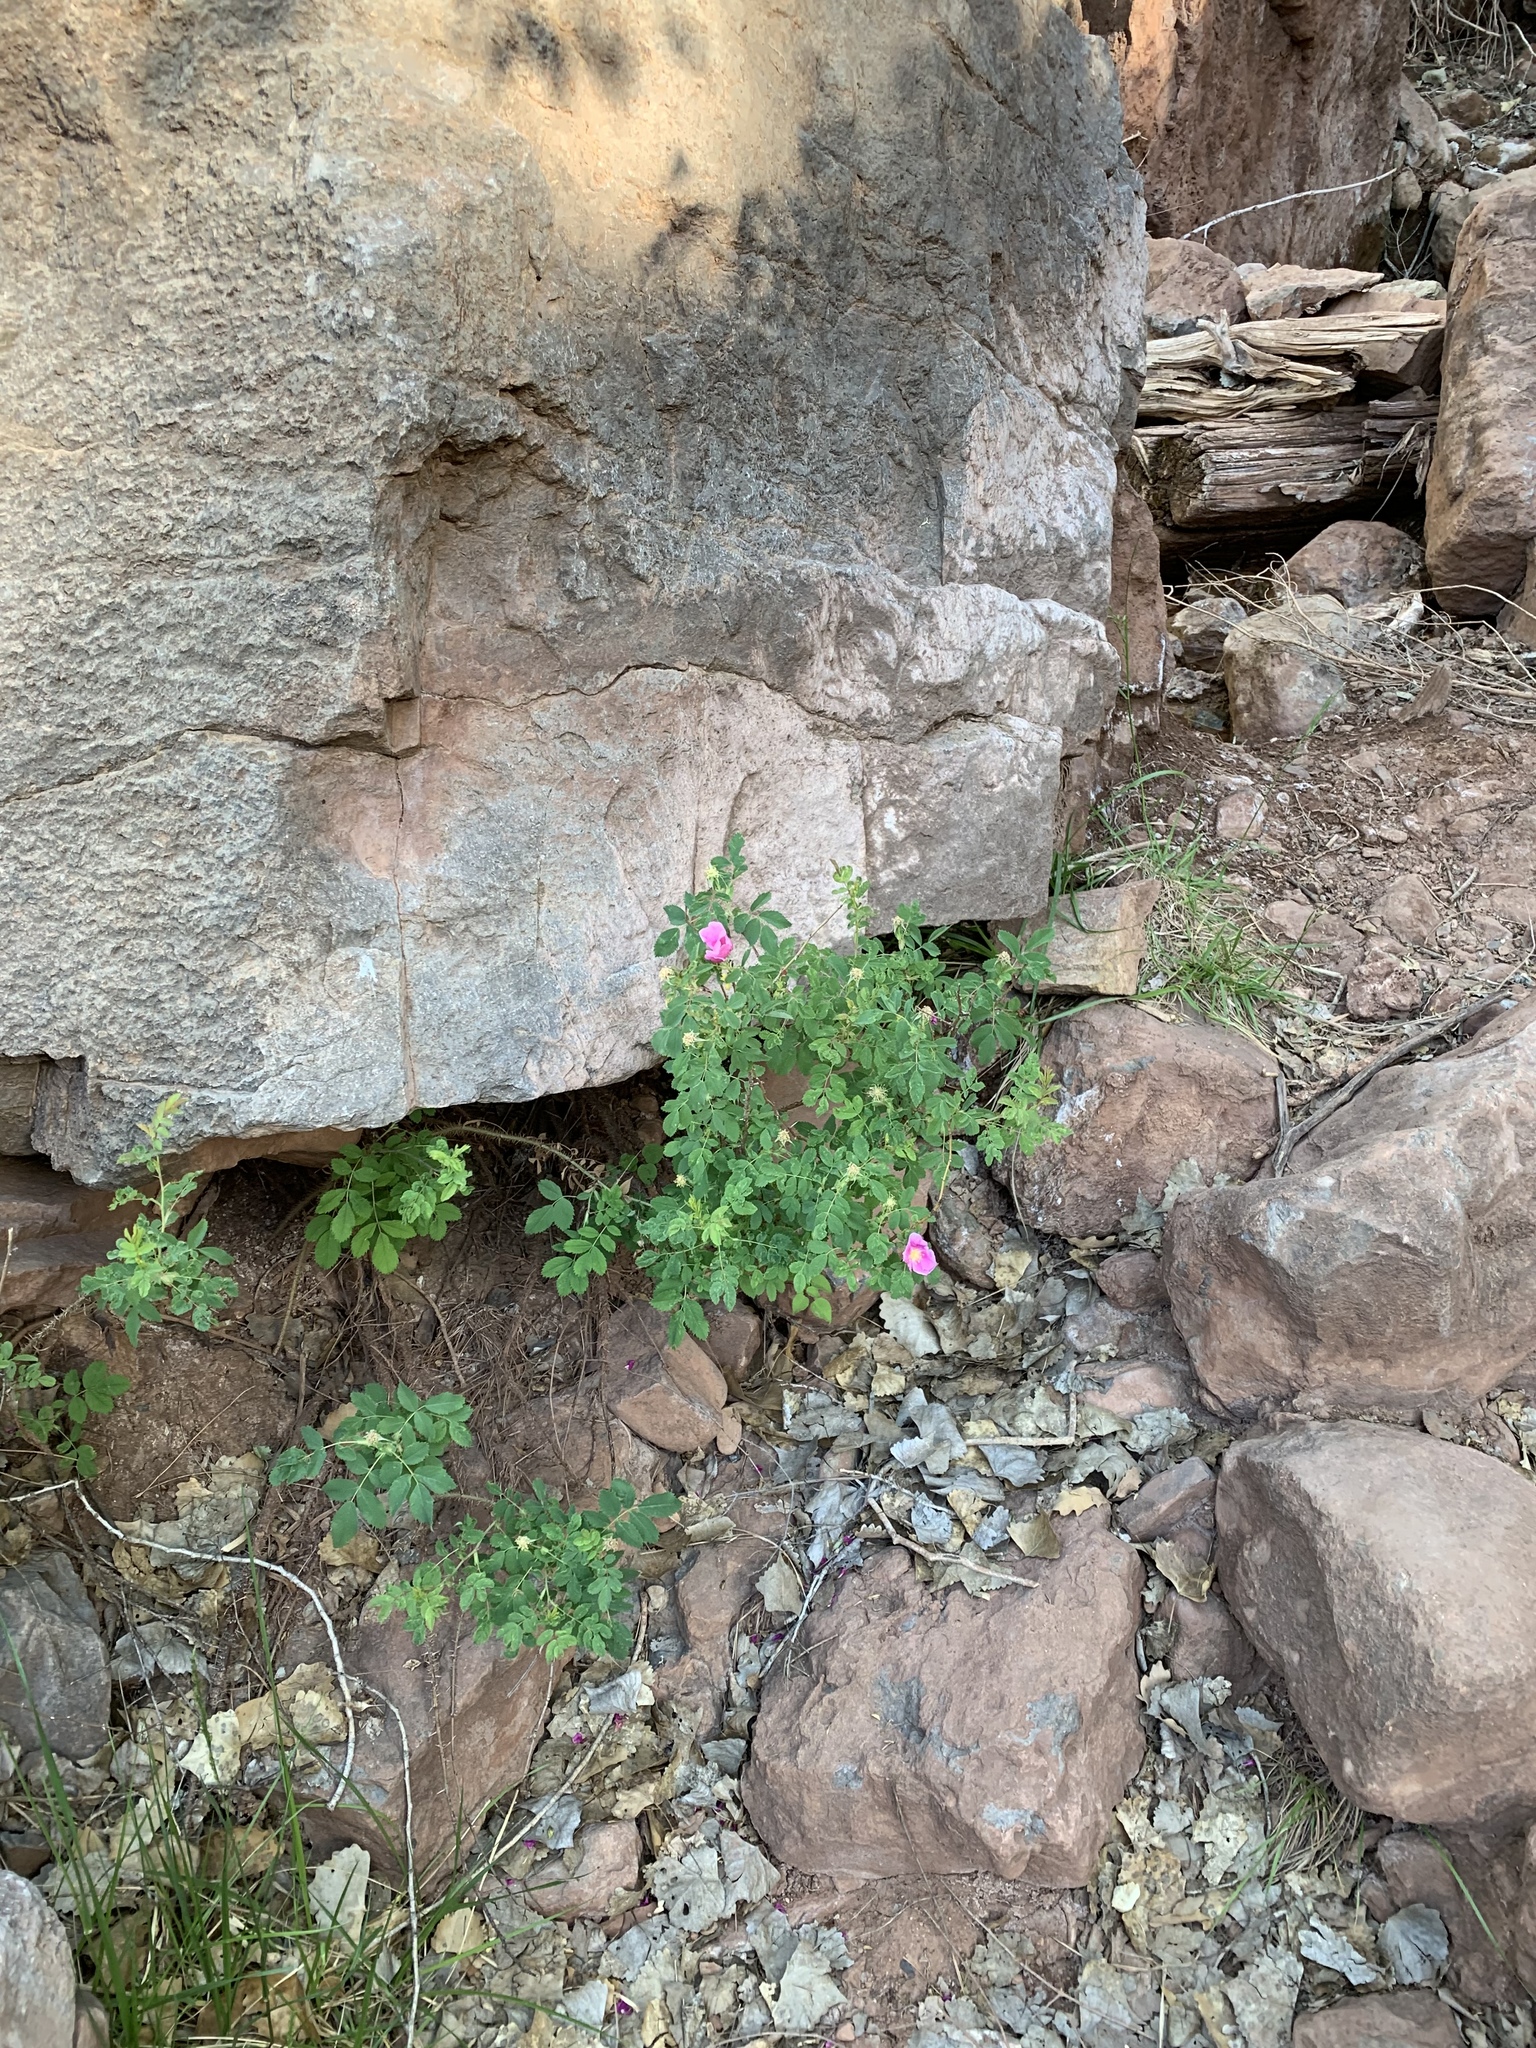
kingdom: Plantae
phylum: Tracheophyta
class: Magnoliopsida
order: Rosales
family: Rosaceae
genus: Rosa
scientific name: Rosa woodsii
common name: Woods's rose
